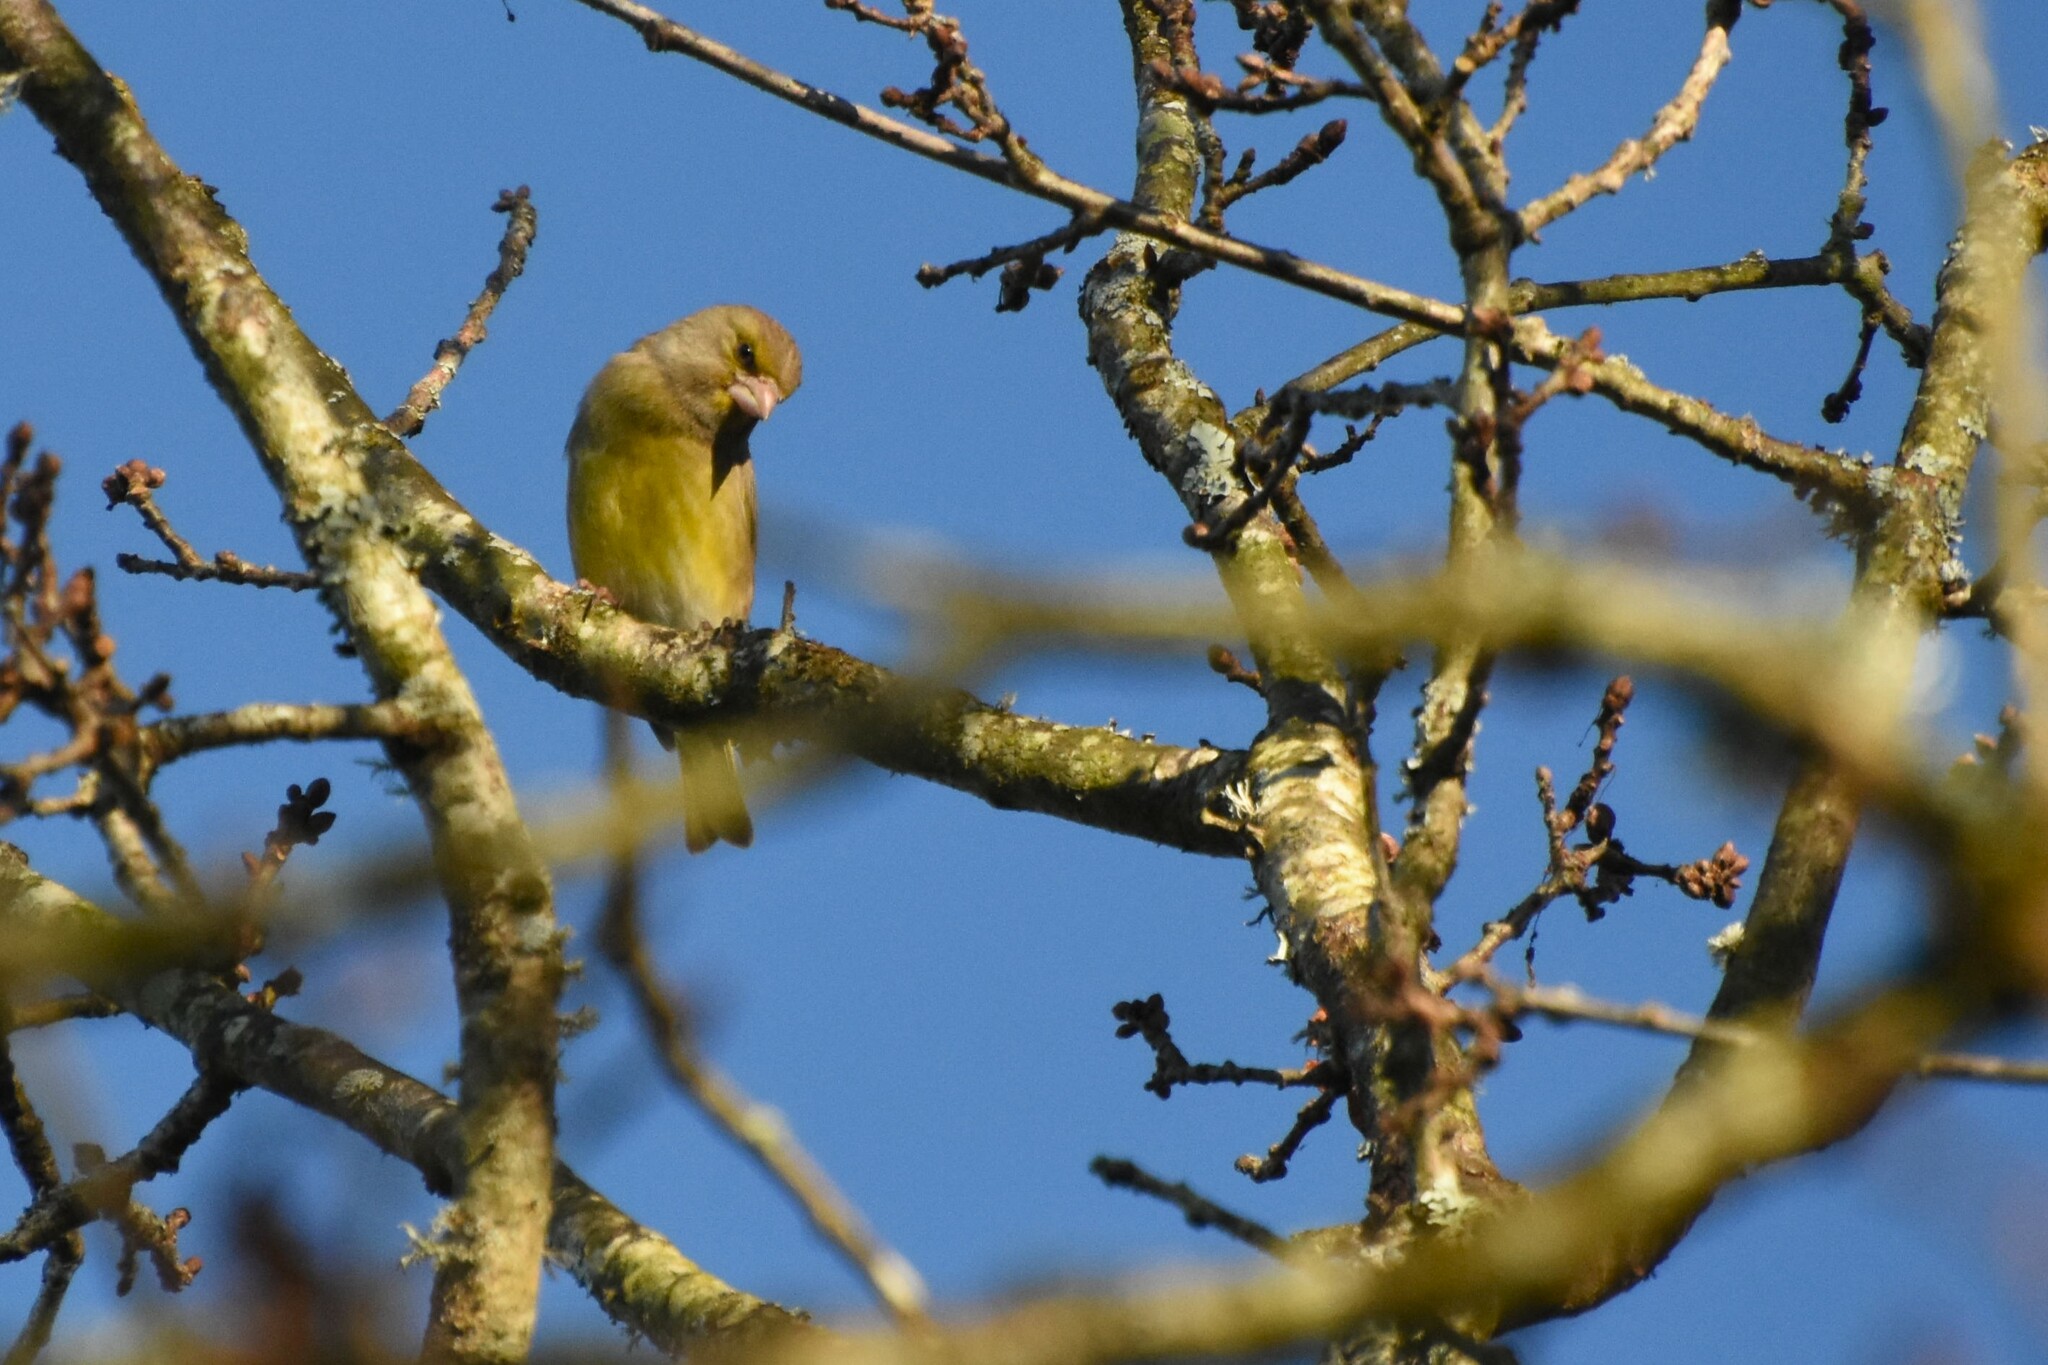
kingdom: Plantae
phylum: Tracheophyta
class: Liliopsida
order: Poales
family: Poaceae
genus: Chloris
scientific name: Chloris chloris
